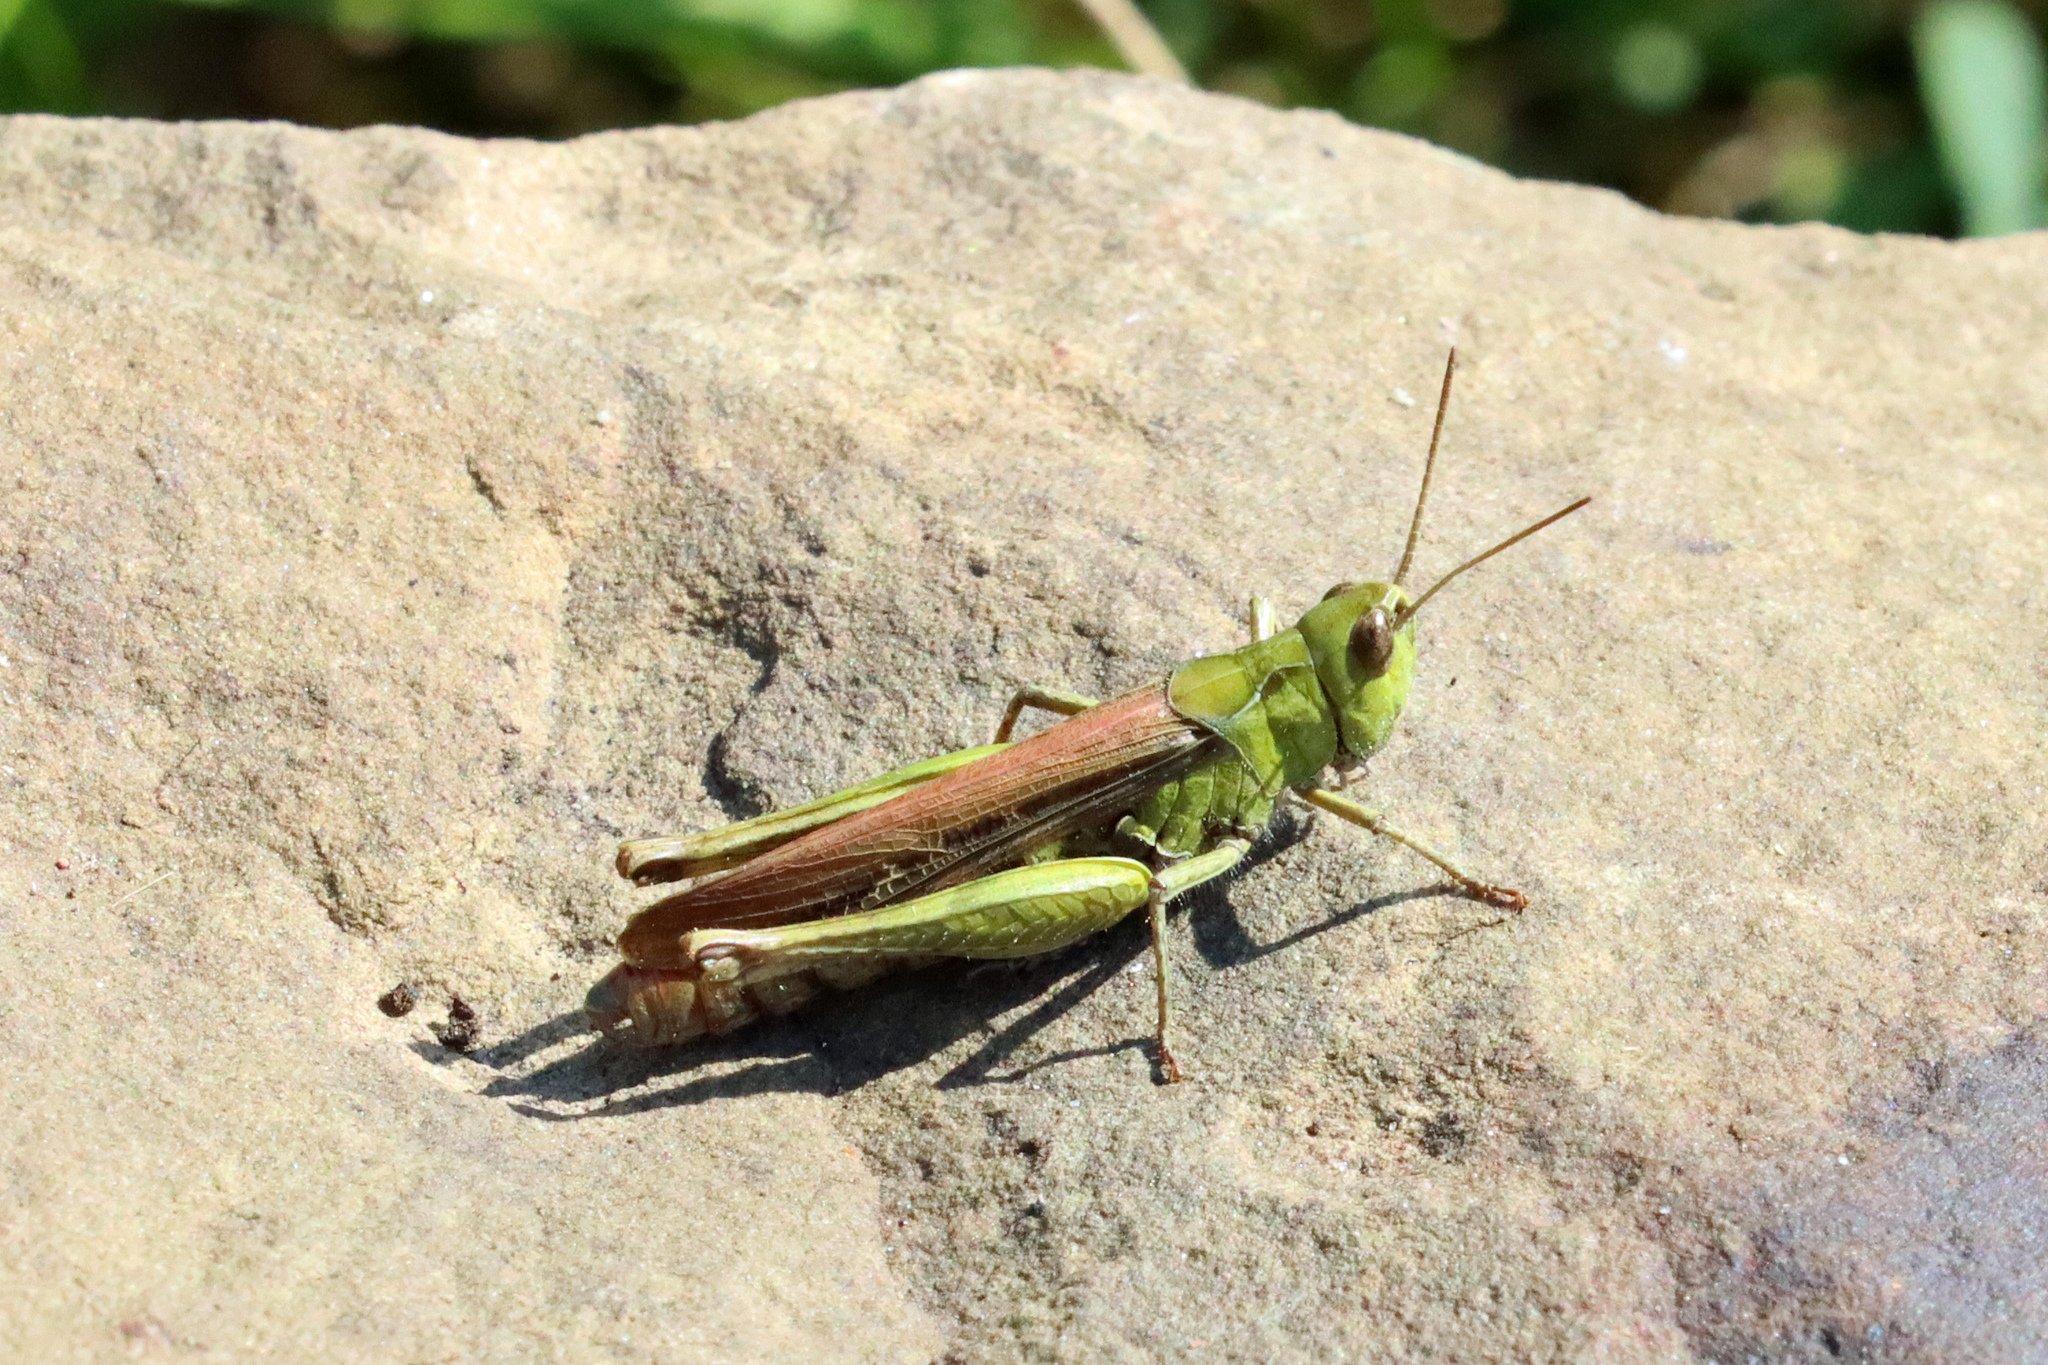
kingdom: Animalia
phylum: Arthropoda
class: Insecta
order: Orthoptera
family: Acrididae
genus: Chorthippus
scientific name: Chorthippus brunneus
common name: Field grasshopper
